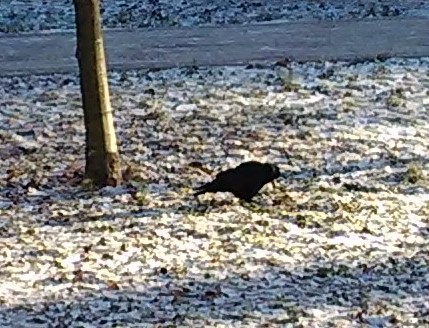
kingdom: Animalia
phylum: Chordata
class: Aves
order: Passeriformes
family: Corvidae
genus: Corvus
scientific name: Corvus frugilegus
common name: Rook
